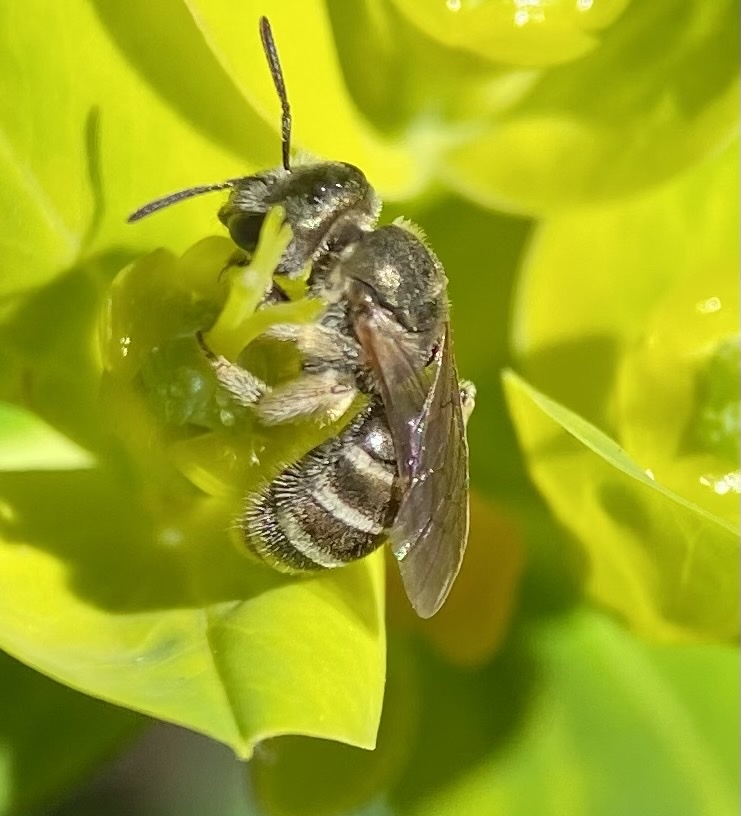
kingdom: Animalia
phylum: Arthropoda
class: Insecta
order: Hymenoptera
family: Halictidae
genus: Halictus
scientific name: Halictus tripartitus
